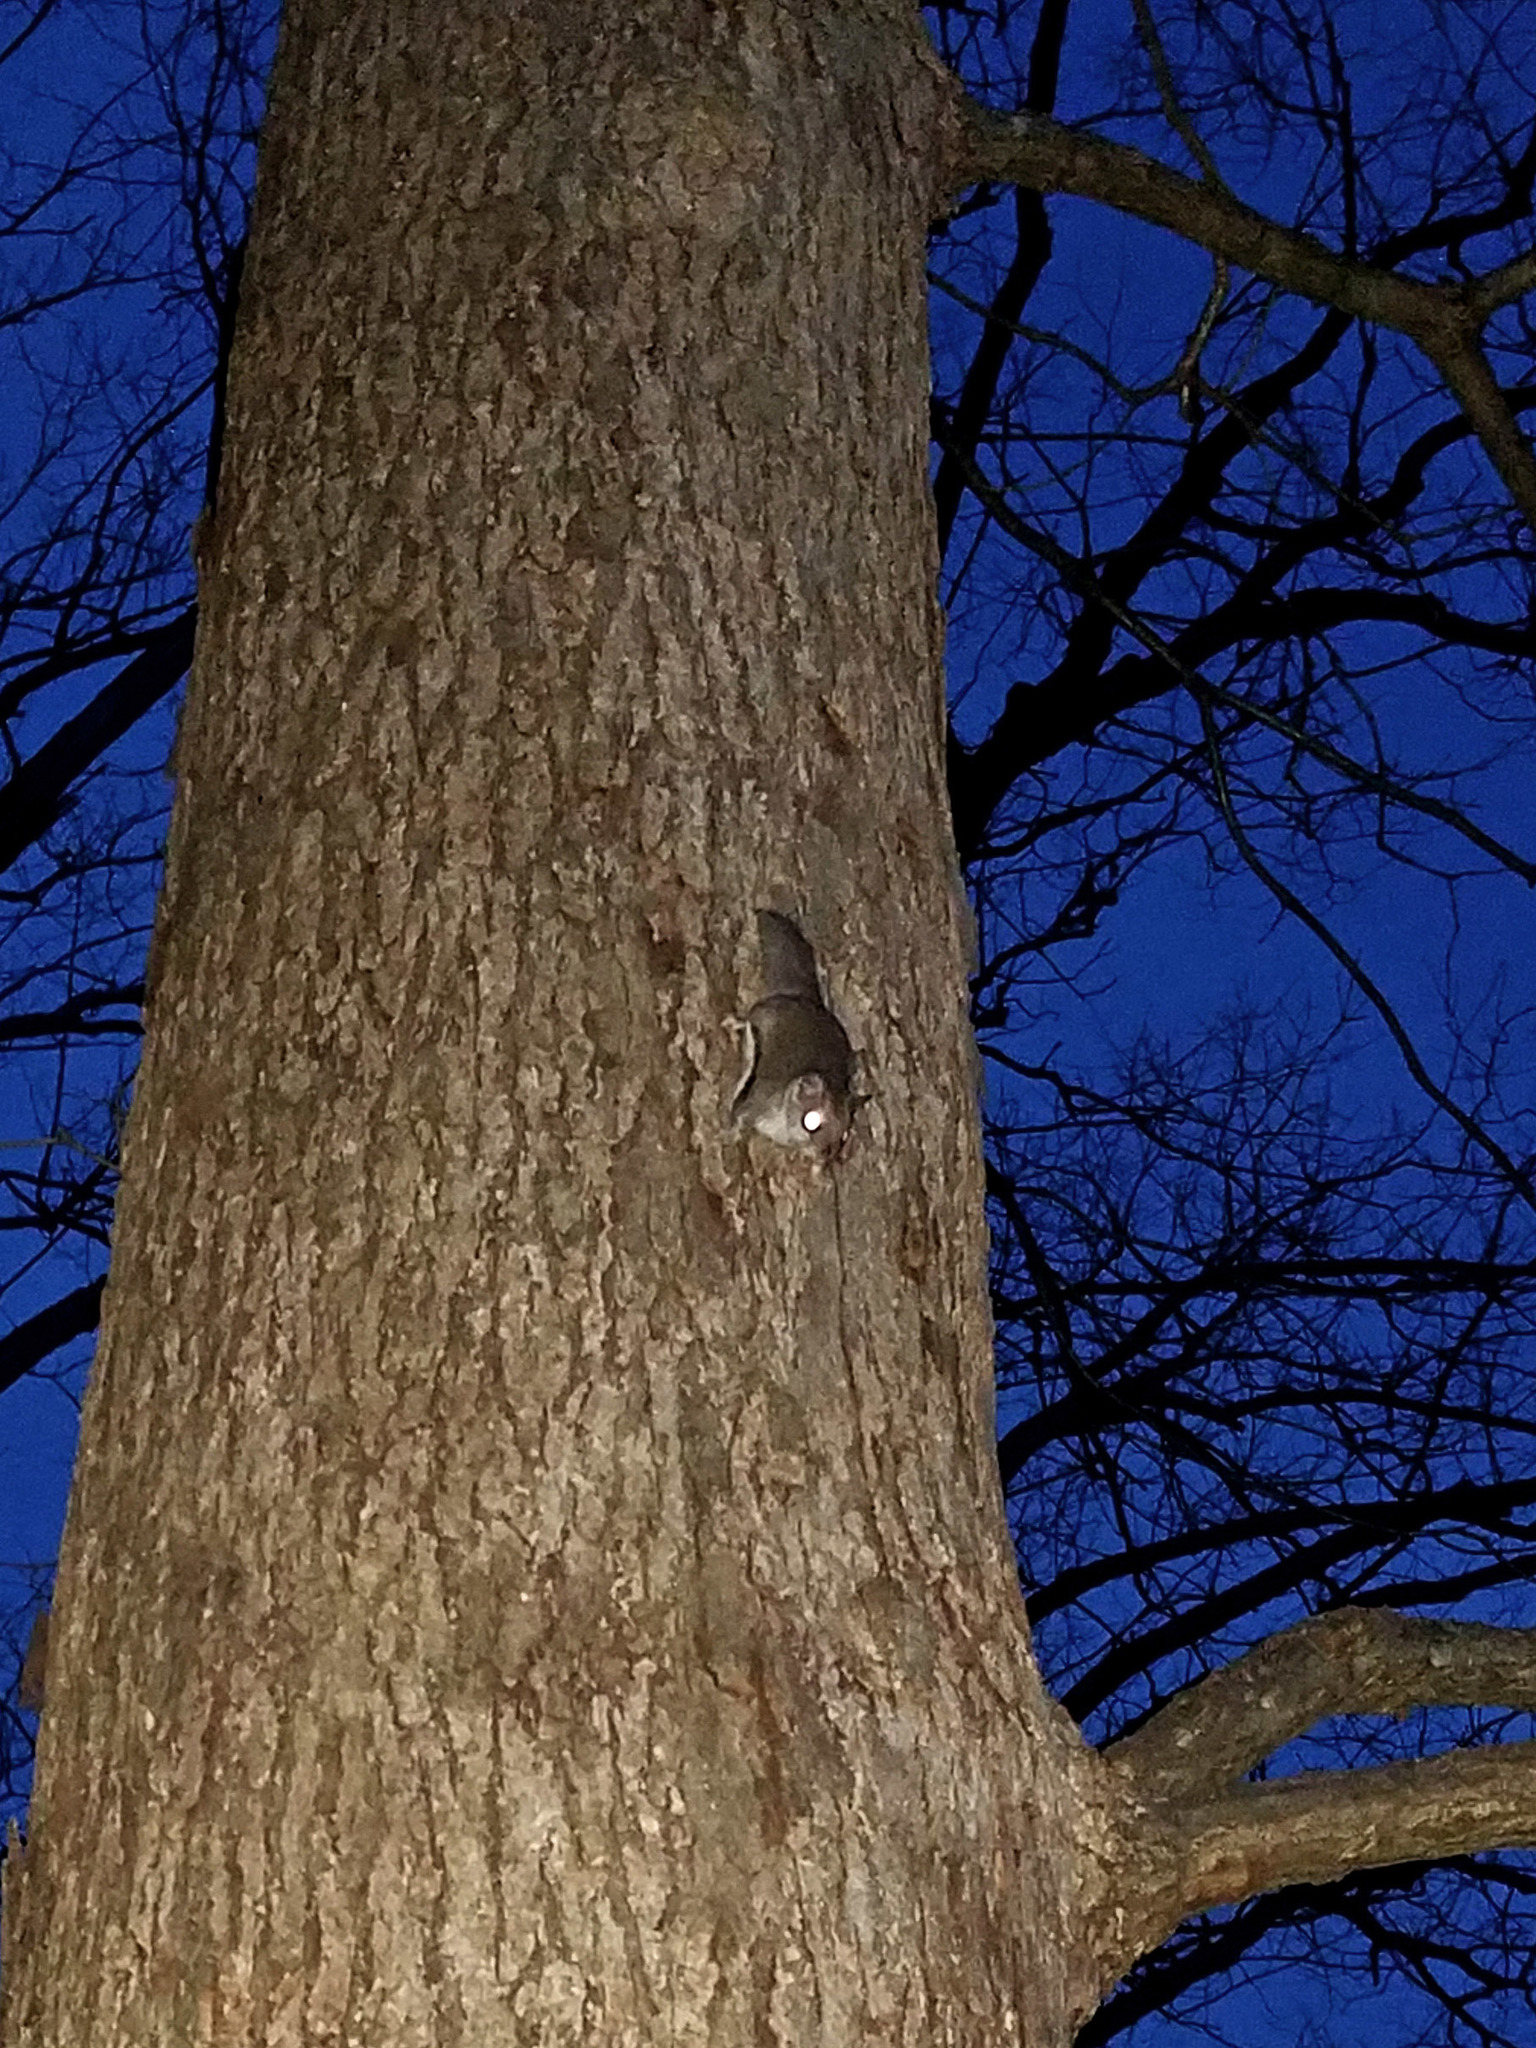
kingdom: Animalia
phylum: Chordata
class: Mammalia
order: Rodentia
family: Sciuridae
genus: Glaucomys
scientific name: Glaucomys volans
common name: Southern flying squirrel
